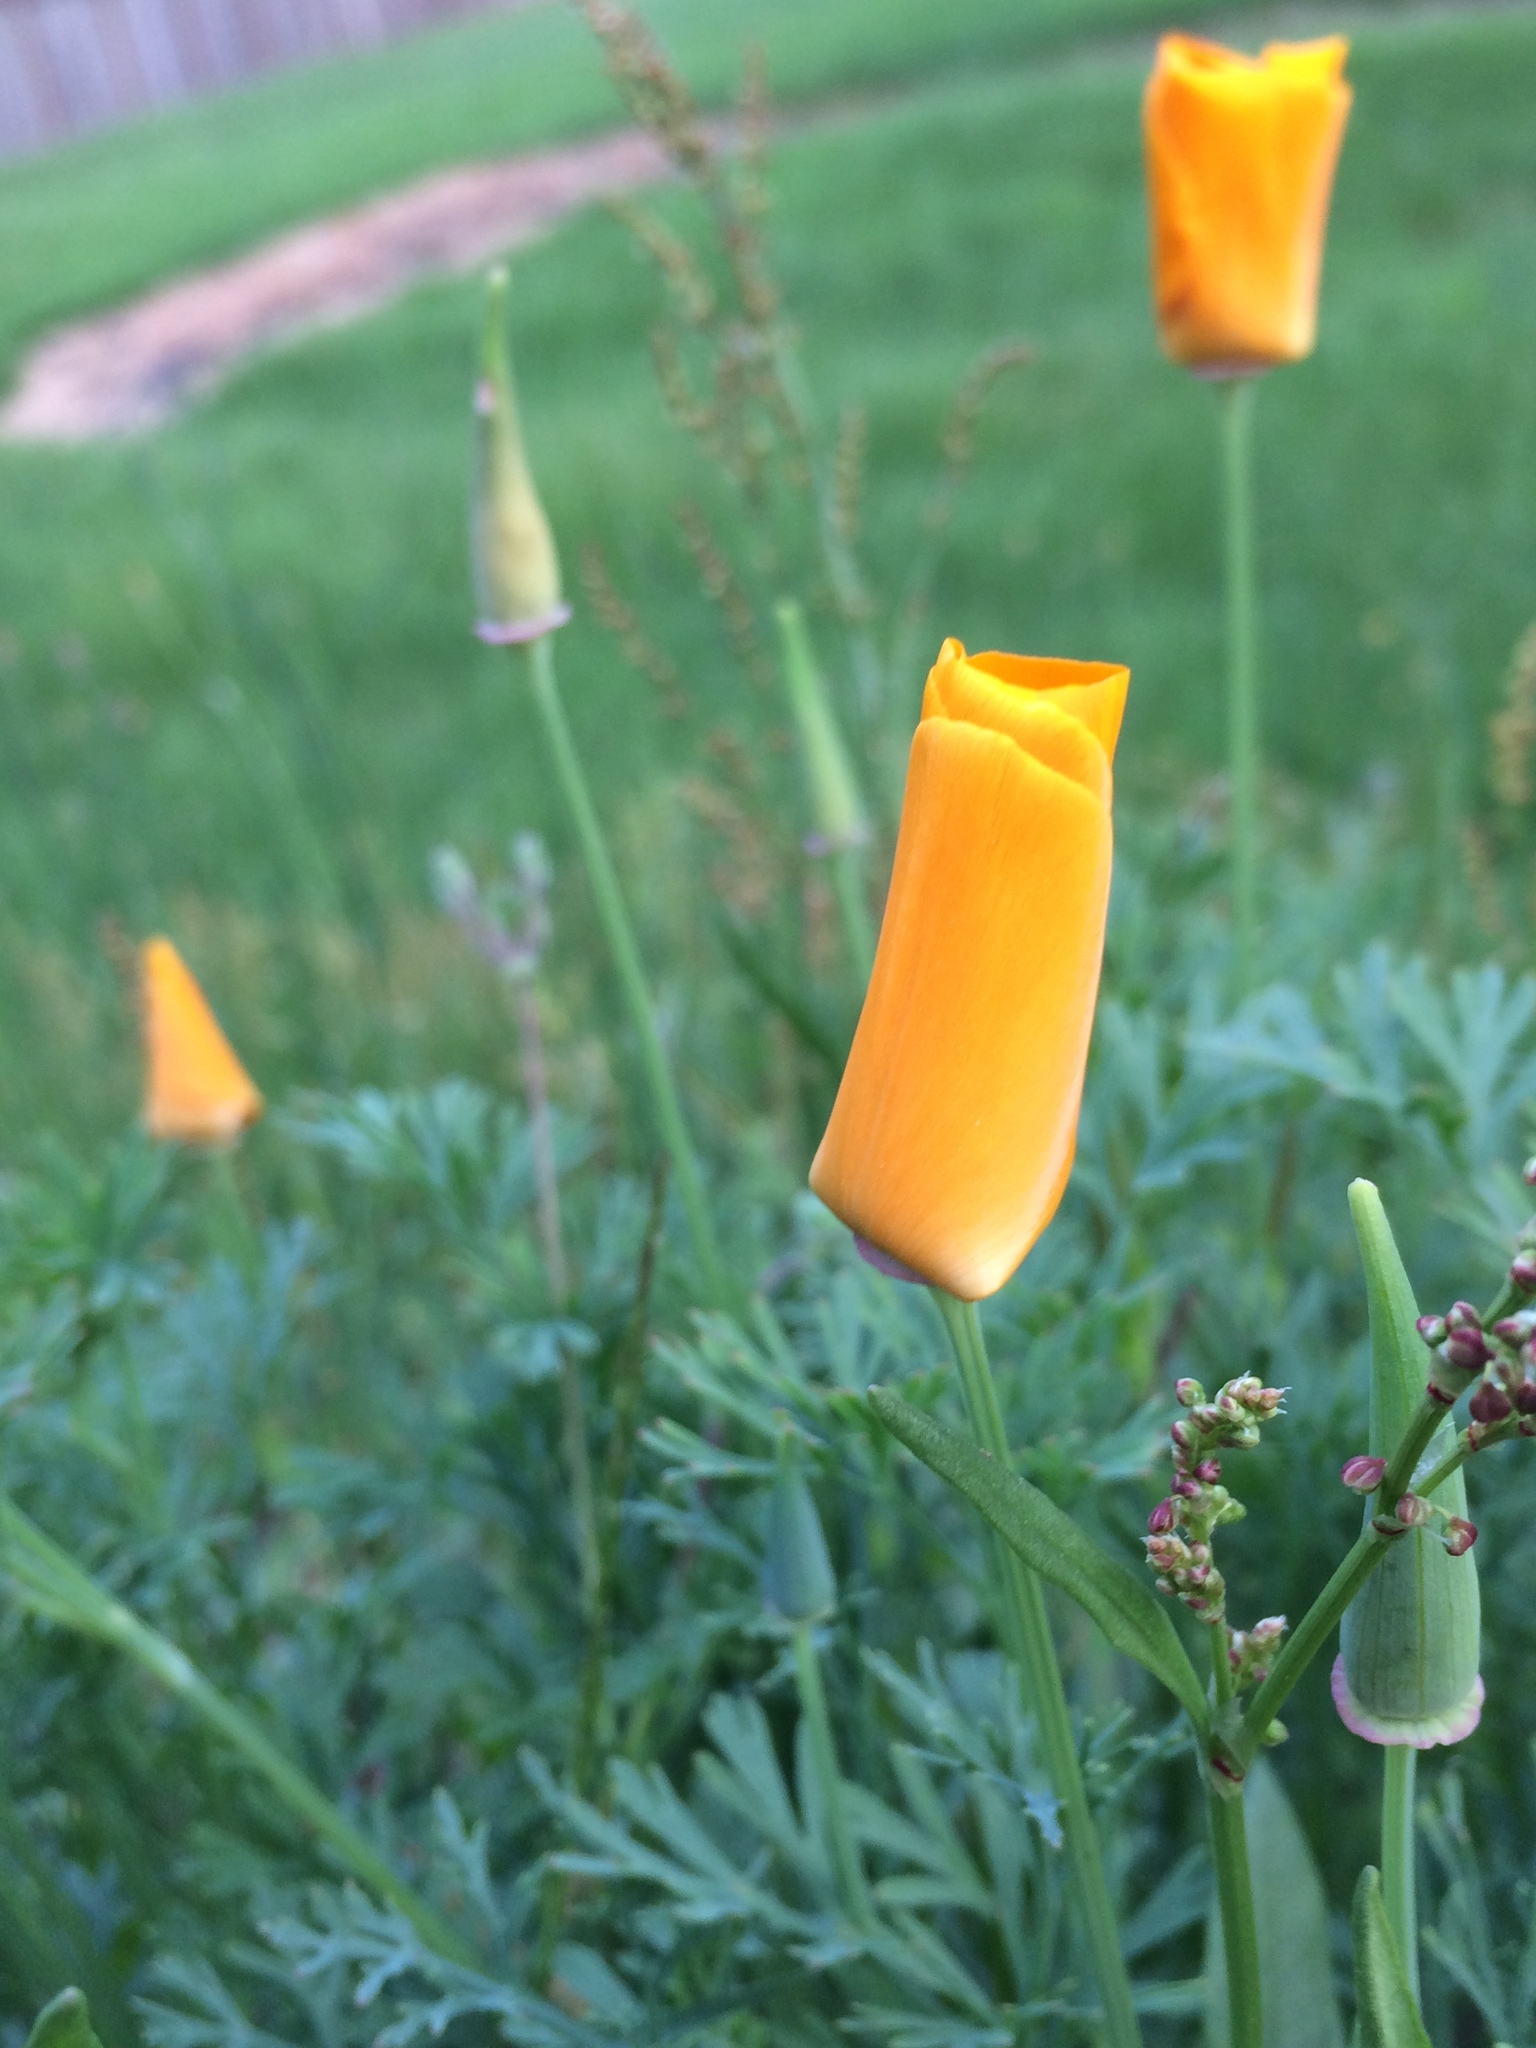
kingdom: Plantae
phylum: Tracheophyta
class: Magnoliopsida
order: Ranunculales
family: Papaveraceae
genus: Eschscholzia
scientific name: Eschscholzia californica
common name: California poppy
